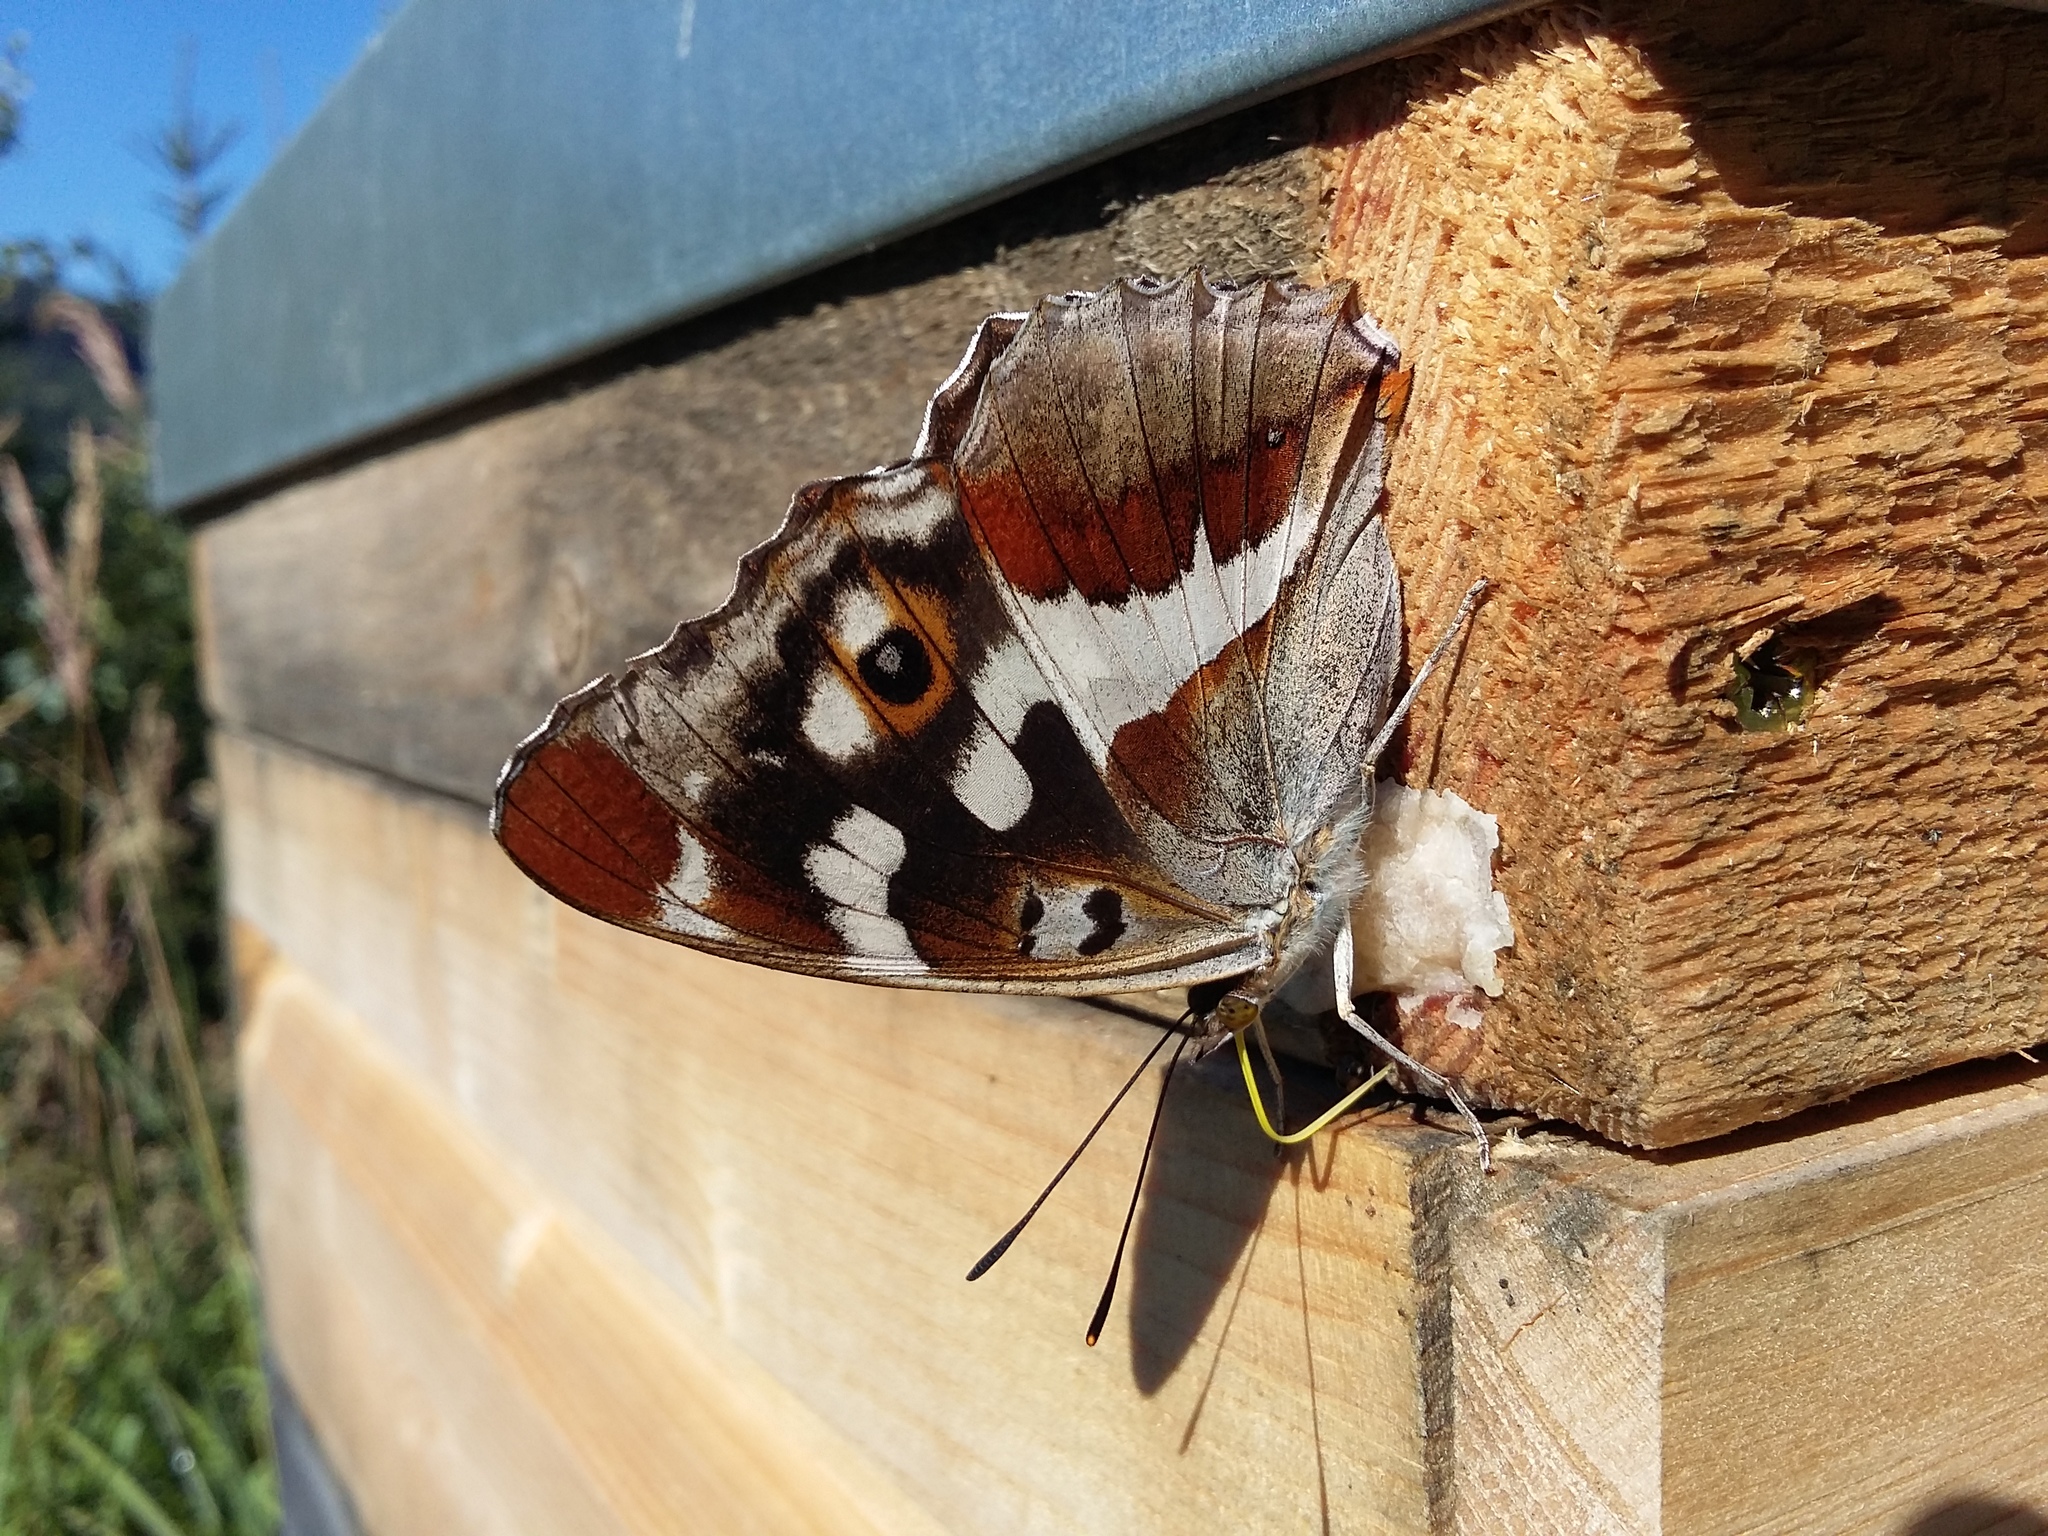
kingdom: Animalia
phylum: Arthropoda
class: Insecta
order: Lepidoptera
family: Nymphalidae
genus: Apatura
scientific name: Apatura iris
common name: Purple emperor
